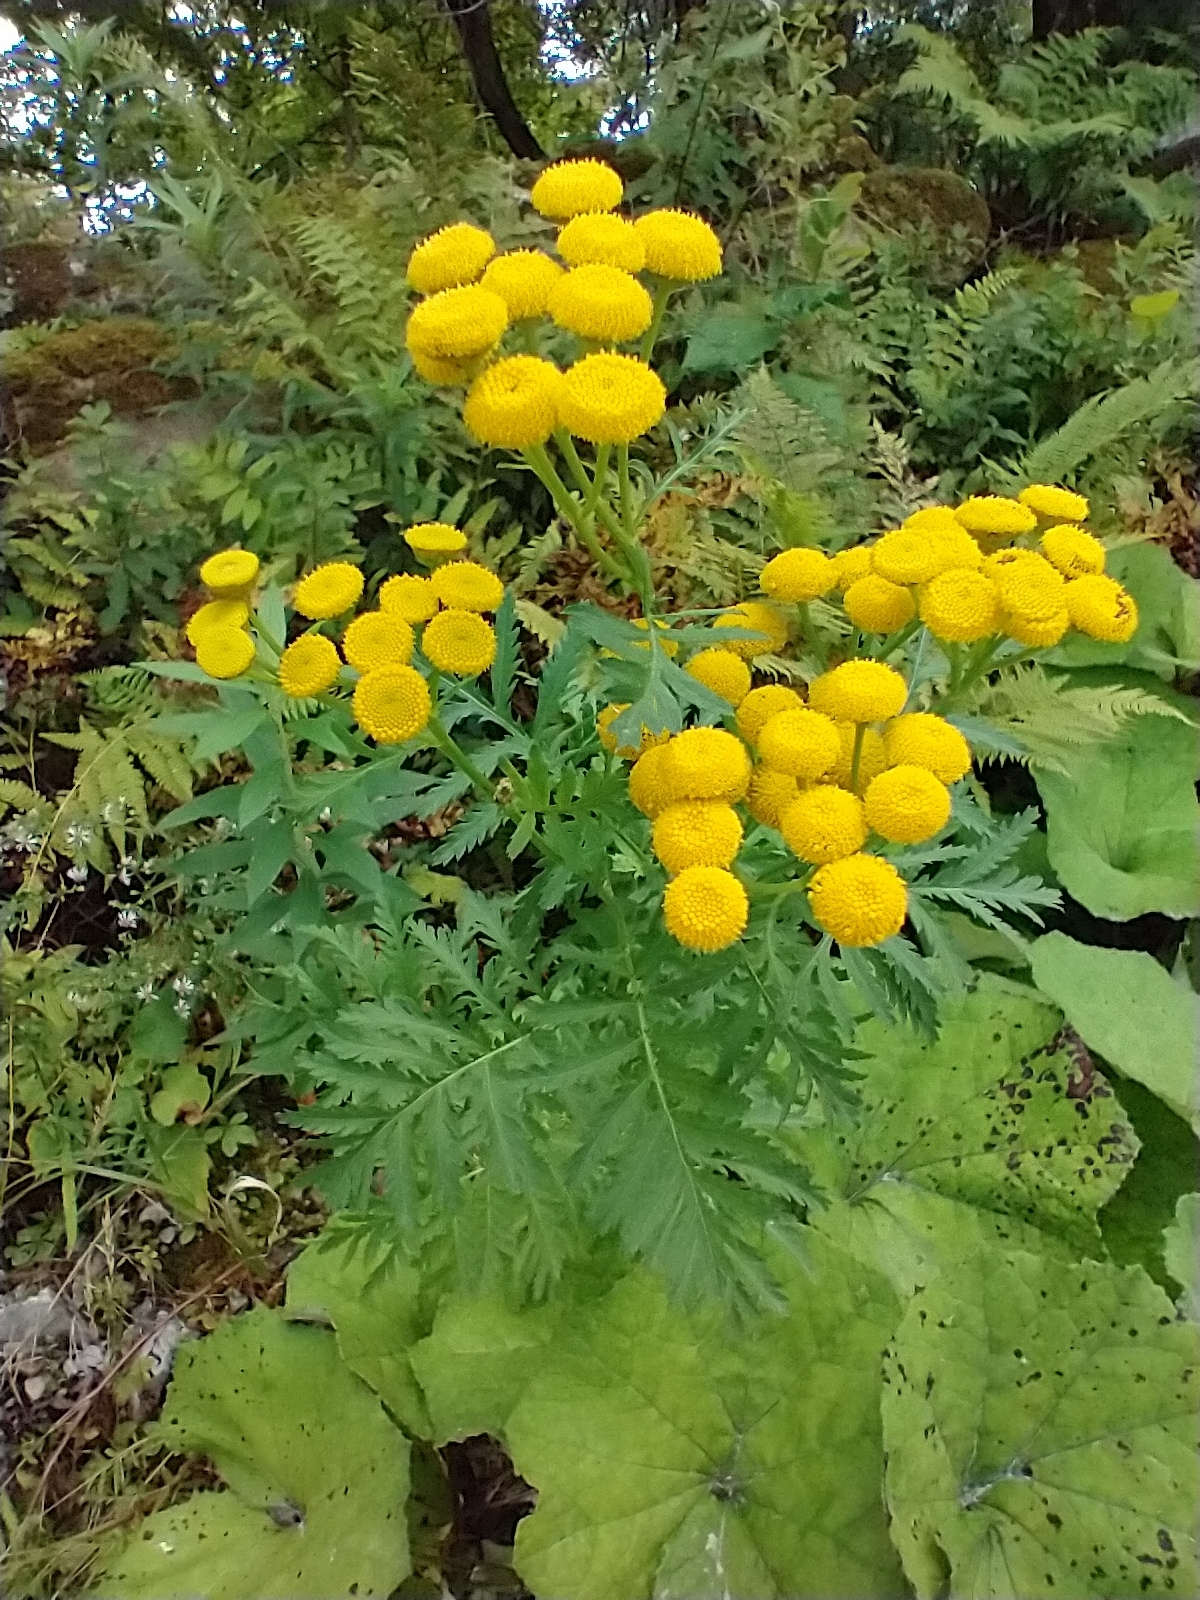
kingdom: Plantae
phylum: Tracheophyta
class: Magnoliopsida
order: Asterales
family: Asteraceae
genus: Tanacetum
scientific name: Tanacetum vulgare
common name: Common tansy
